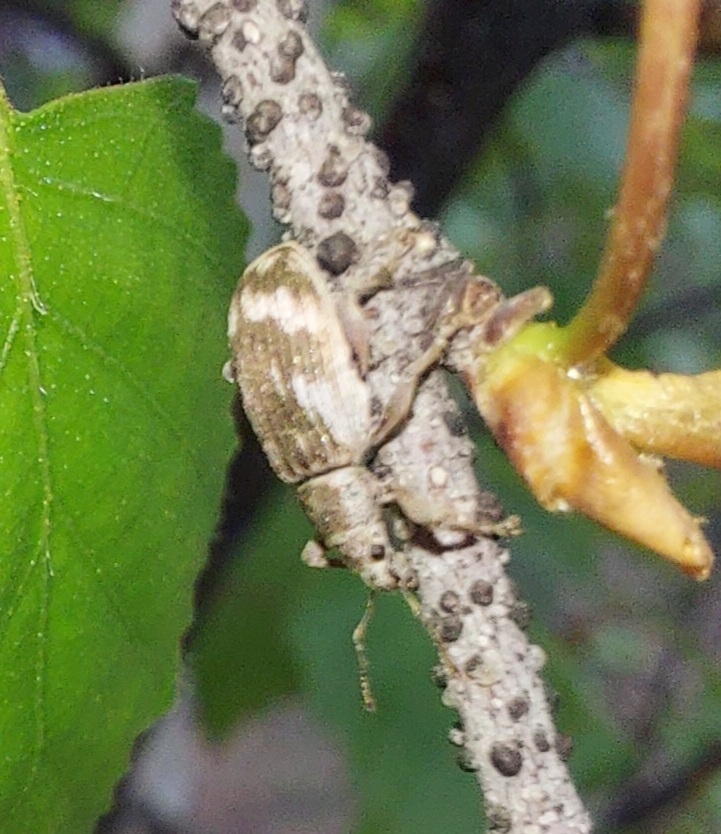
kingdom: Animalia
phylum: Arthropoda
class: Insecta
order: Coleoptera
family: Curculionidae
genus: Polydrusus
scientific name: Polydrusus tereticollis
